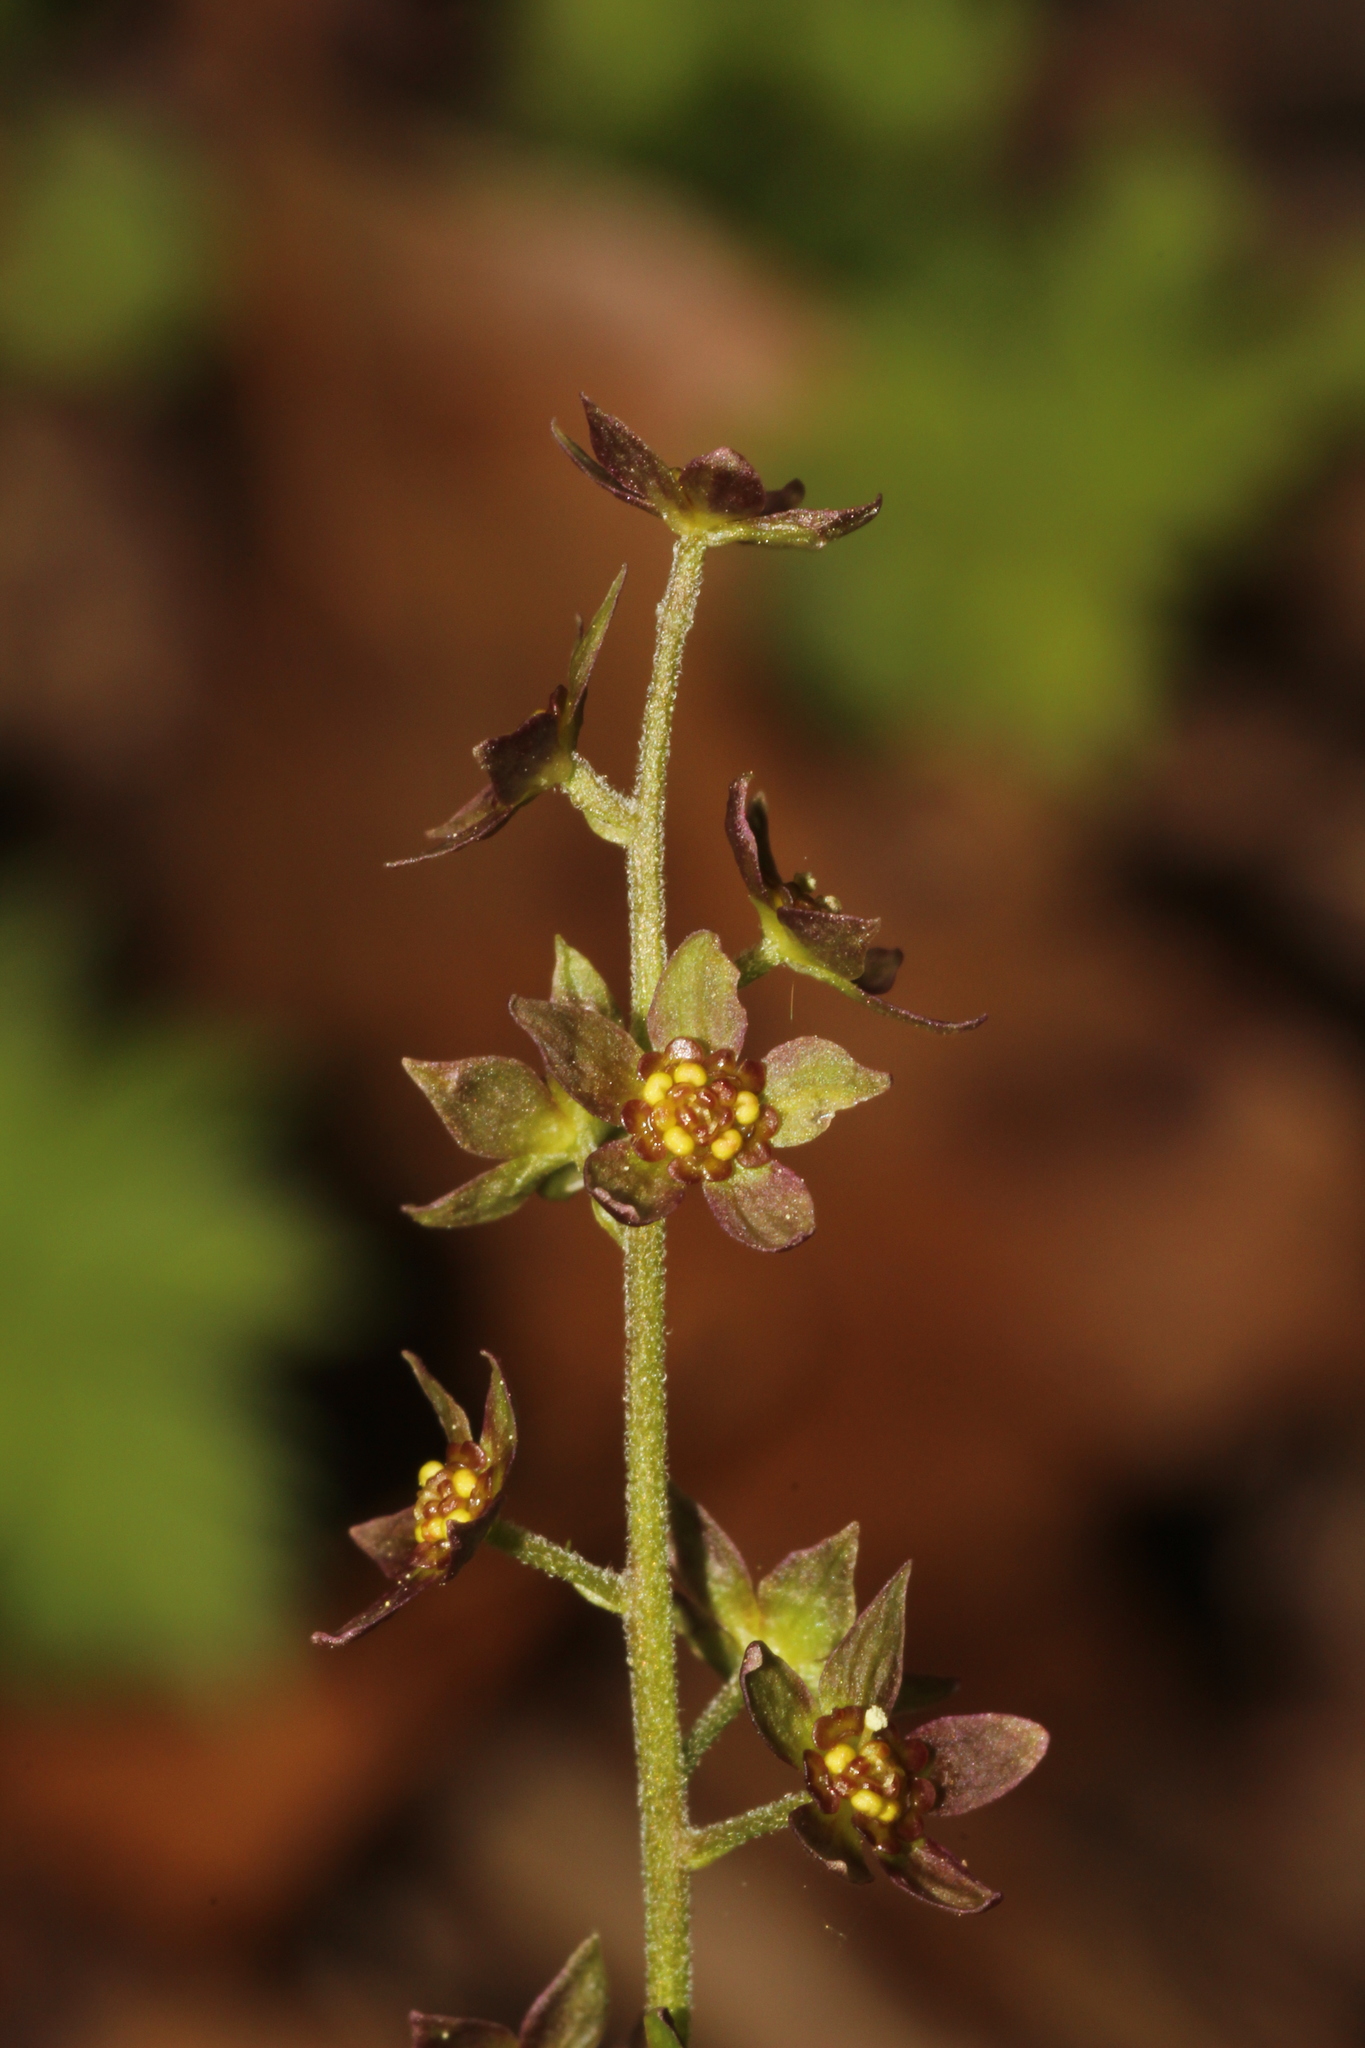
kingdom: Plantae
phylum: Tracheophyta
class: Magnoliopsida
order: Ranunculales
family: Ranunculaceae
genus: Xanthorhiza
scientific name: Xanthorhiza simplicissima
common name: Yellowroot
